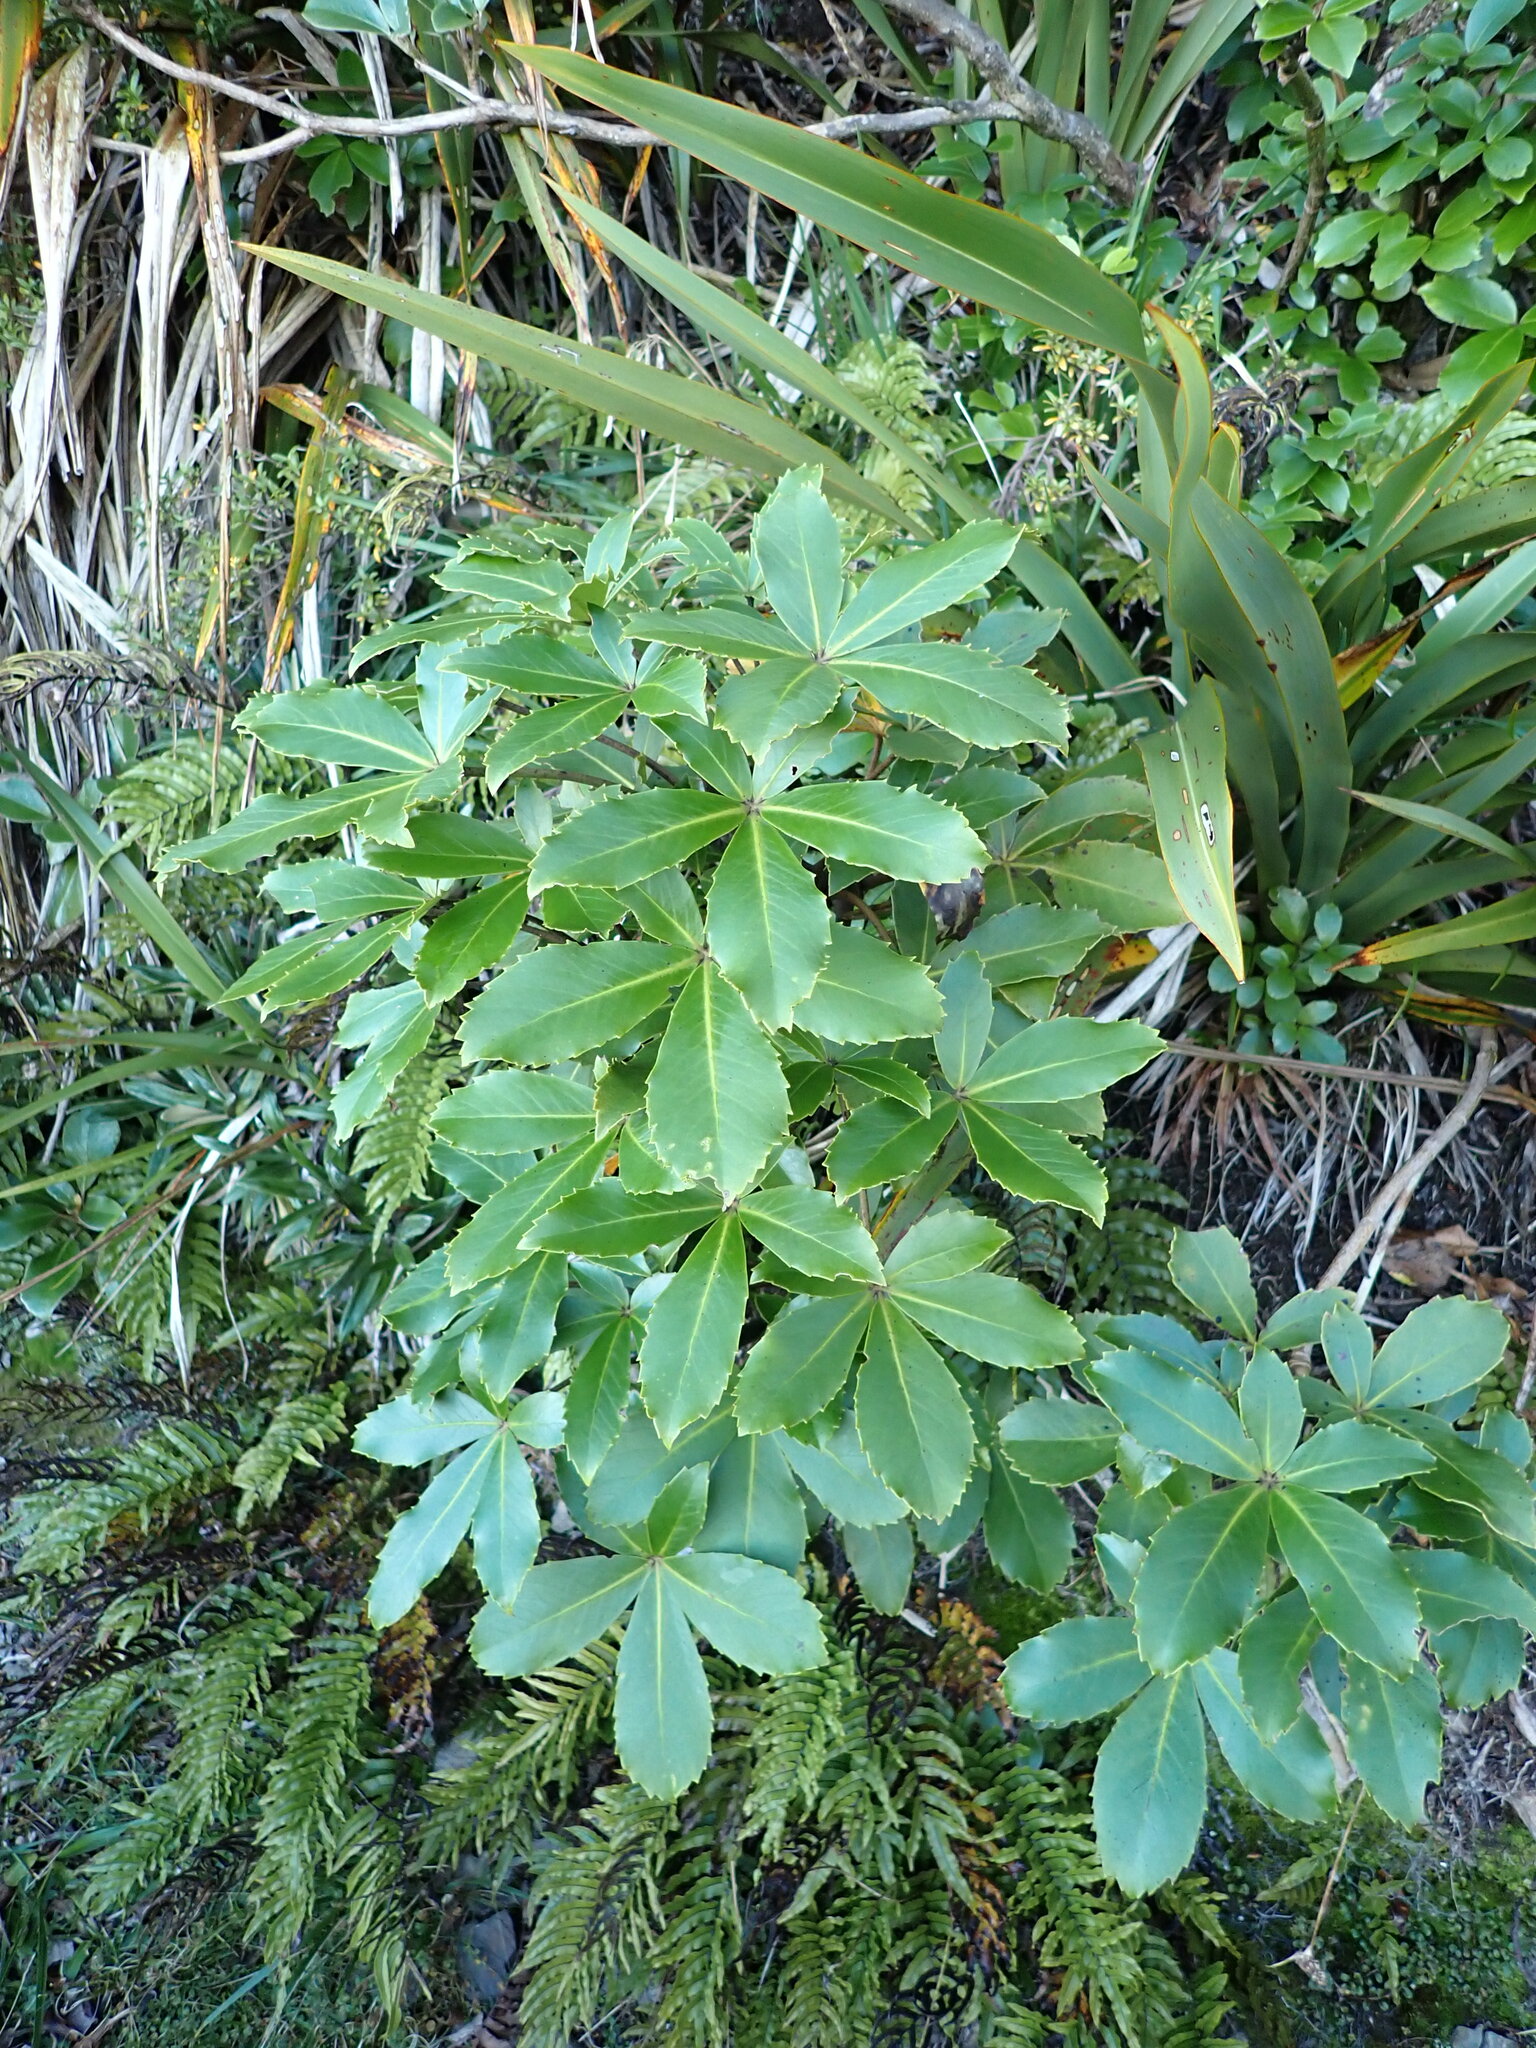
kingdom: Plantae
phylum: Tracheophyta
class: Magnoliopsida
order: Apiales
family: Araliaceae
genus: Neopanax
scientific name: Neopanax colensoi
